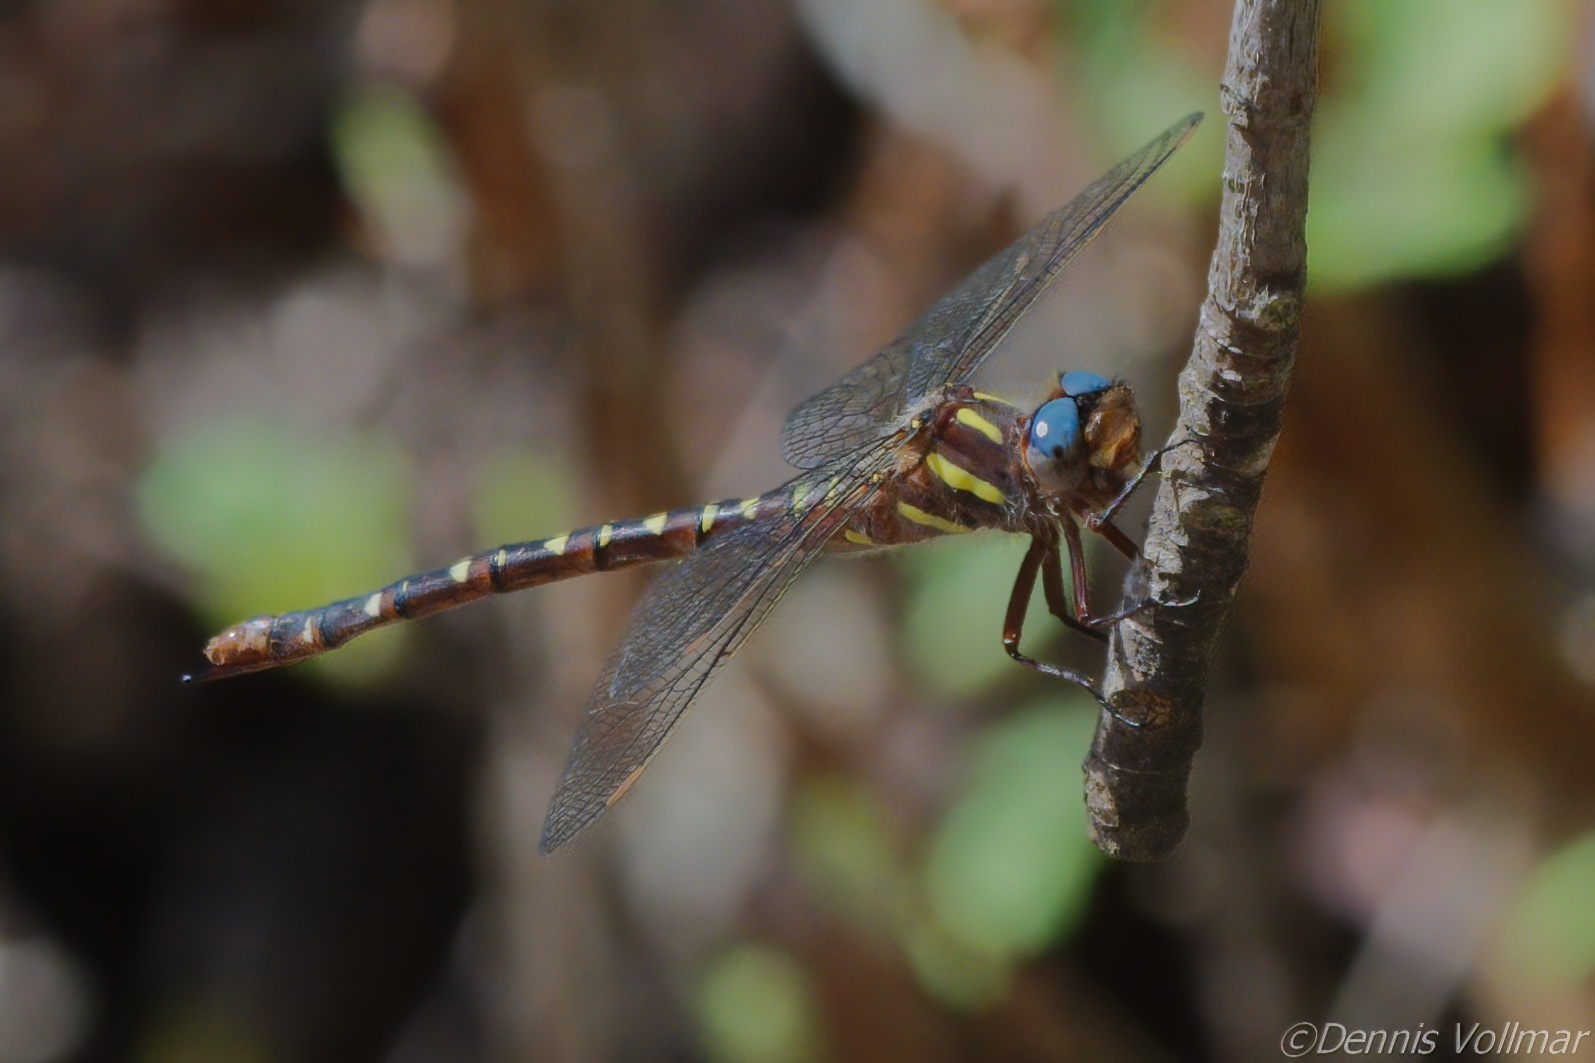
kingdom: Animalia
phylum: Arthropoda
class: Insecta
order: Odonata
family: Cordulegastridae
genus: Cordulegaster
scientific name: Cordulegaster maculata
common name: Twin-spotted spiketail
